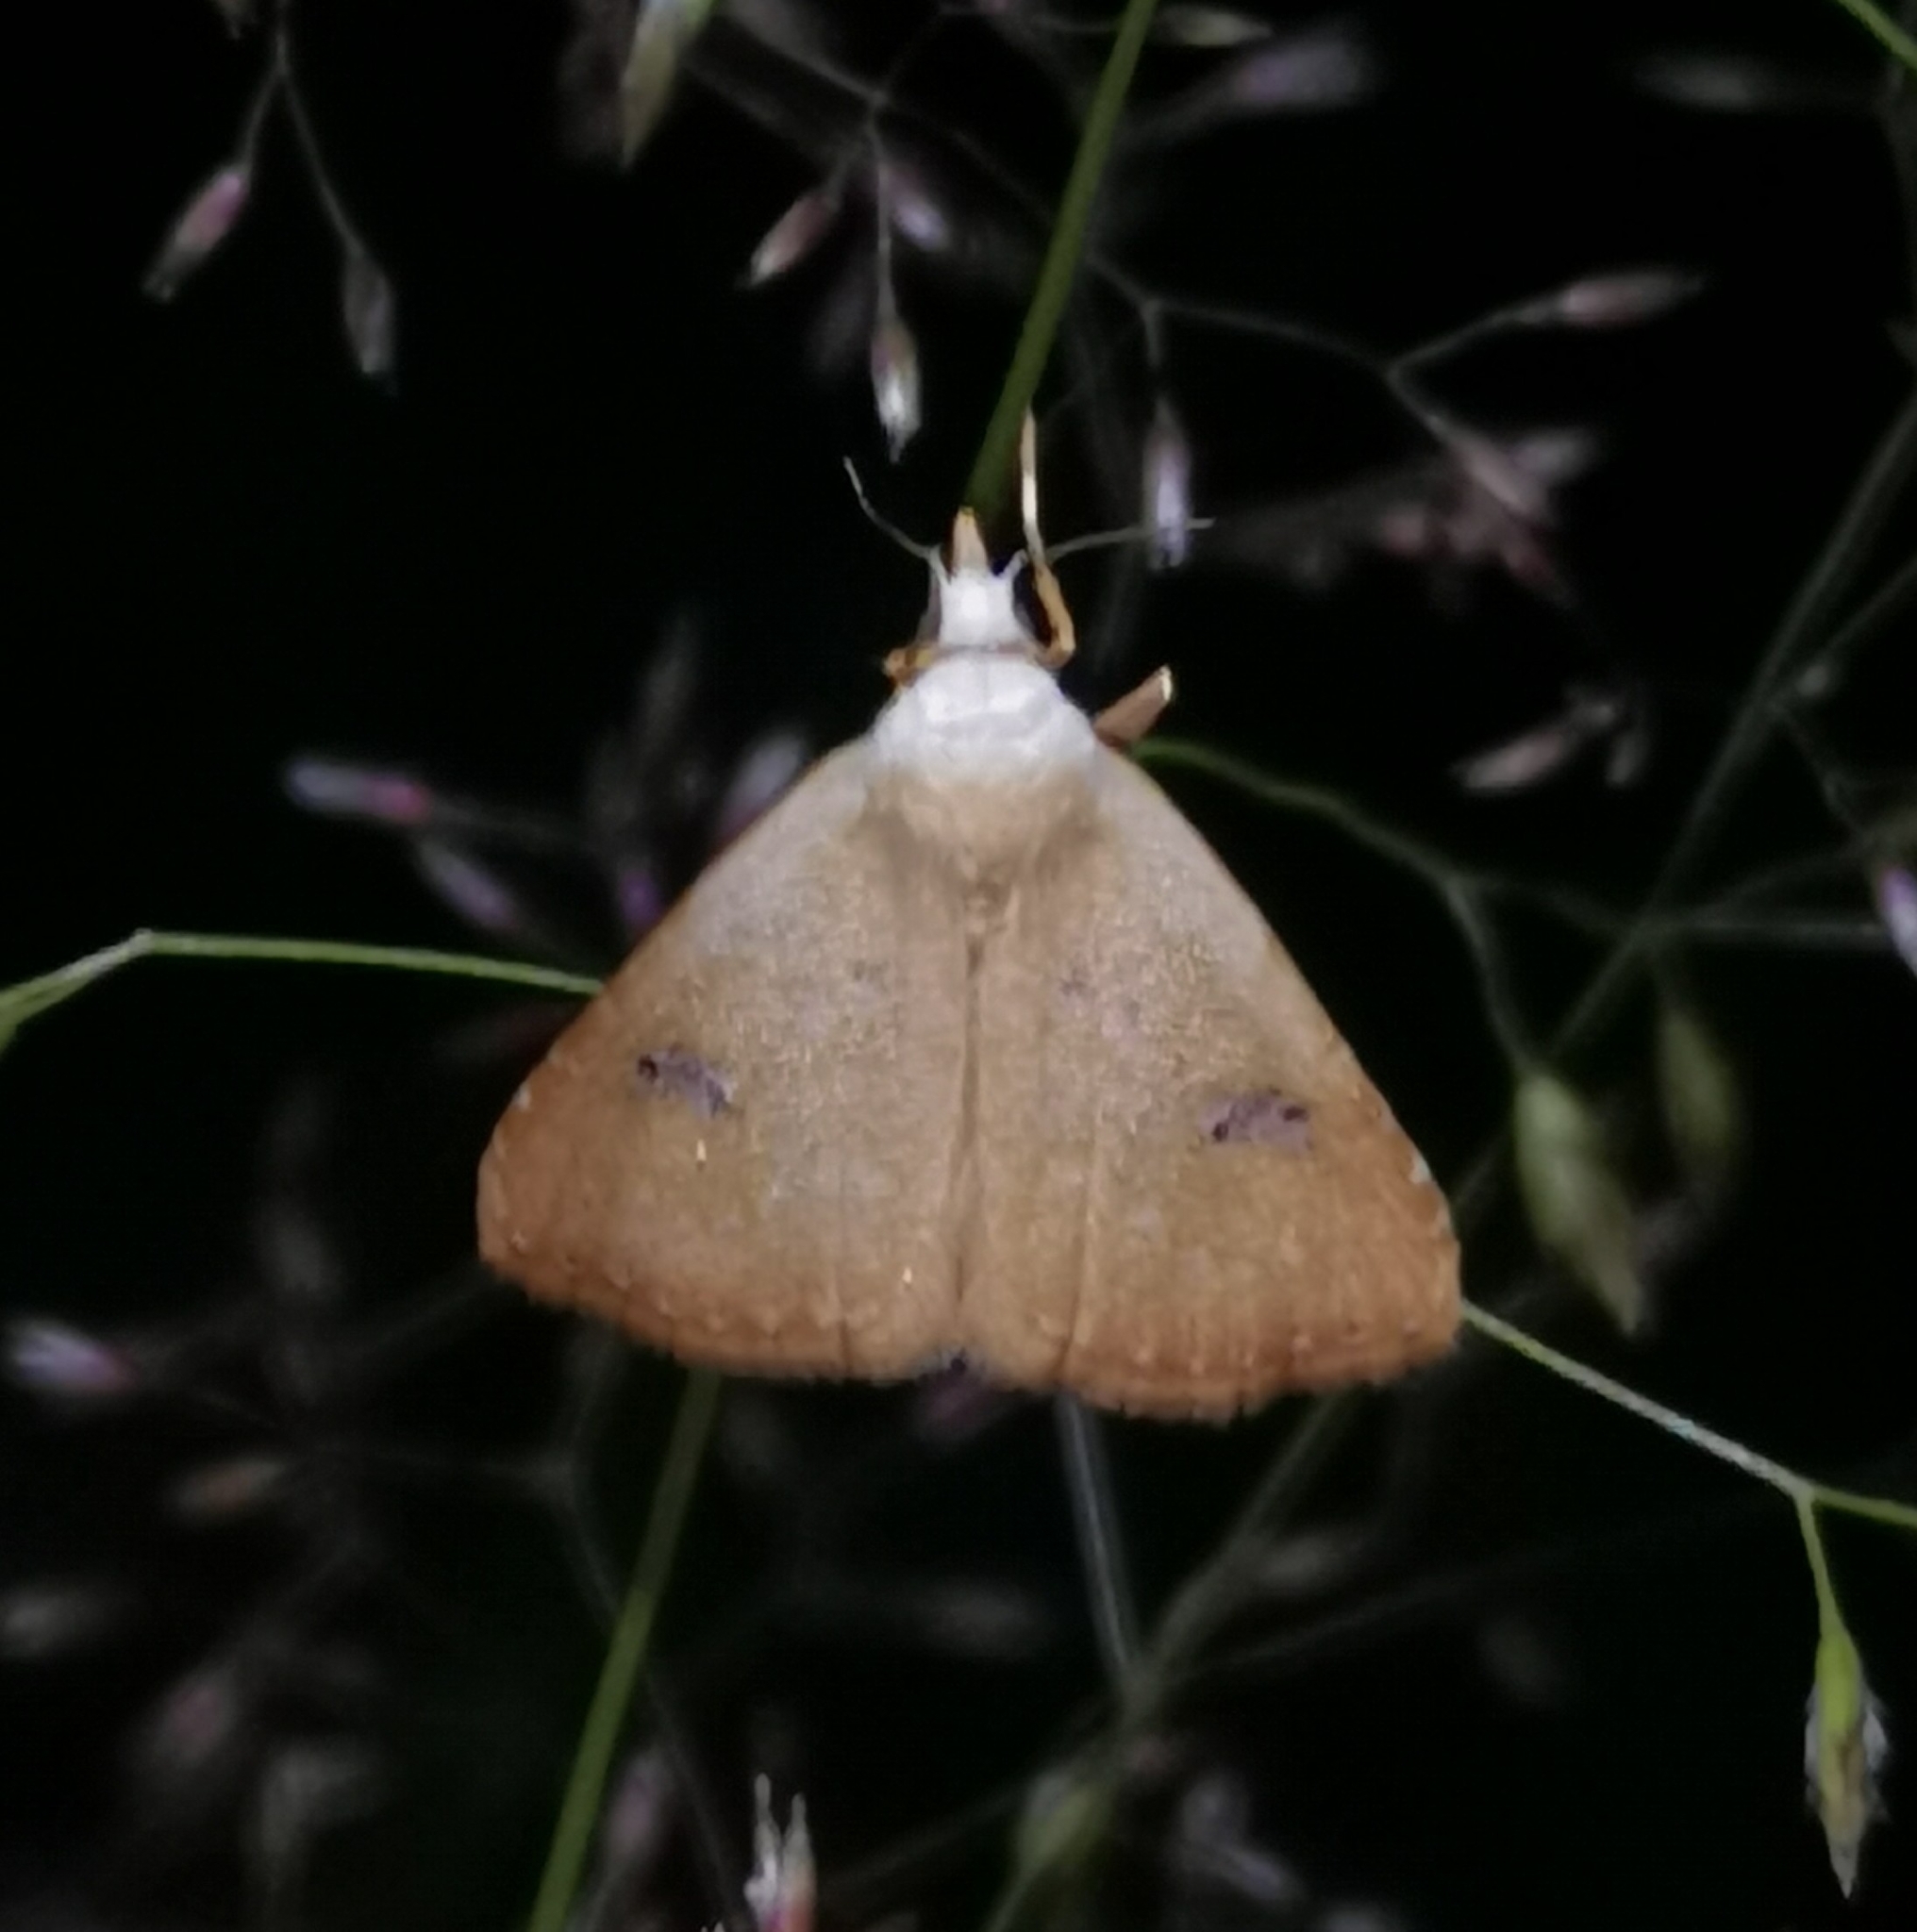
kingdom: Animalia
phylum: Arthropoda
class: Insecta
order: Lepidoptera
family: Erebidae
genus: Rivula
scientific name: Rivula sericealis
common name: Straw dot
